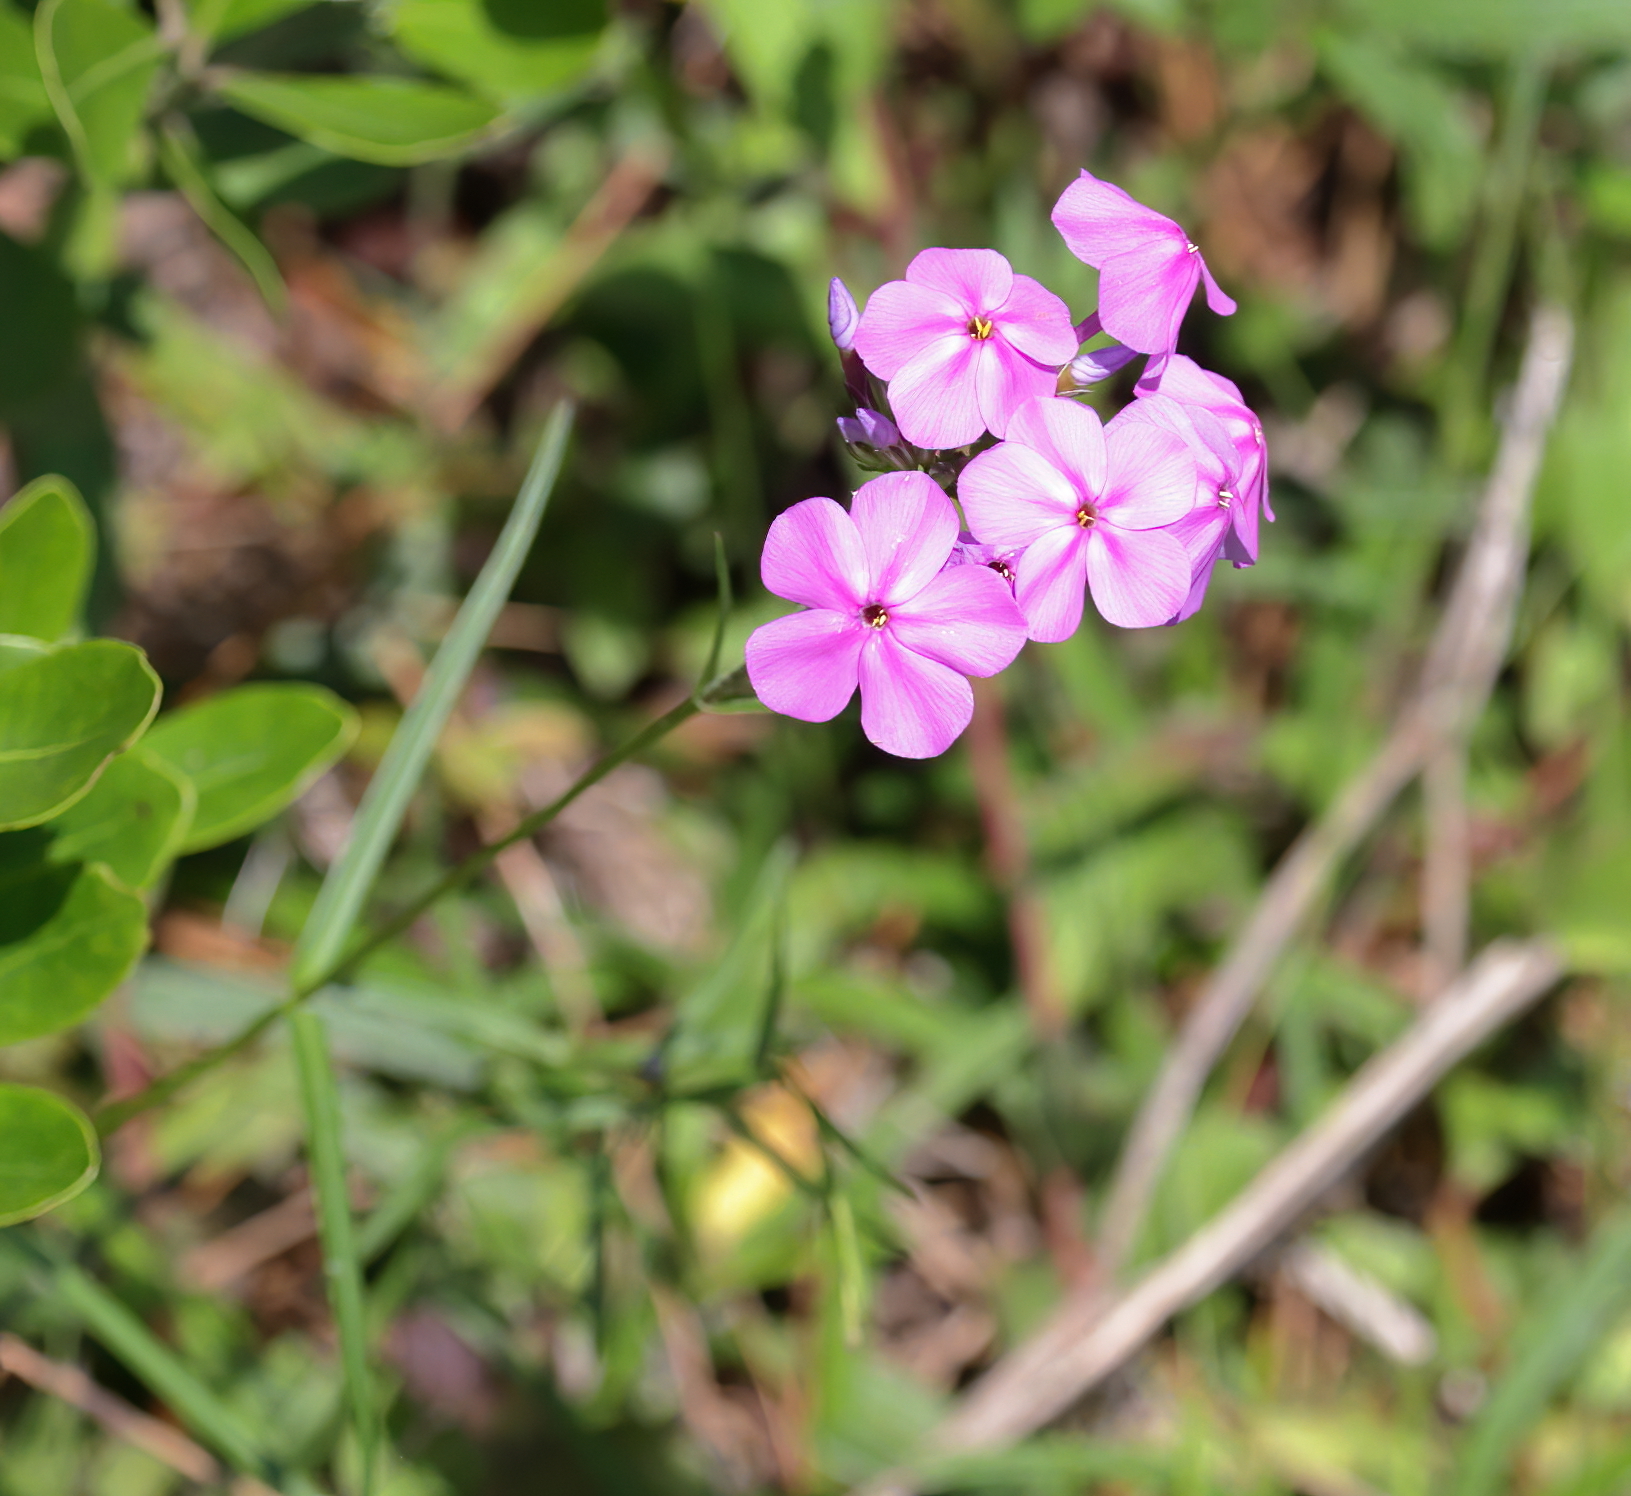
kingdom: Plantae
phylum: Tracheophyta
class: Magnoliopsida
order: Ericales
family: Polemoniaceae
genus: Phlox
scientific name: Phlox carolina
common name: Thick-leaf phlox
